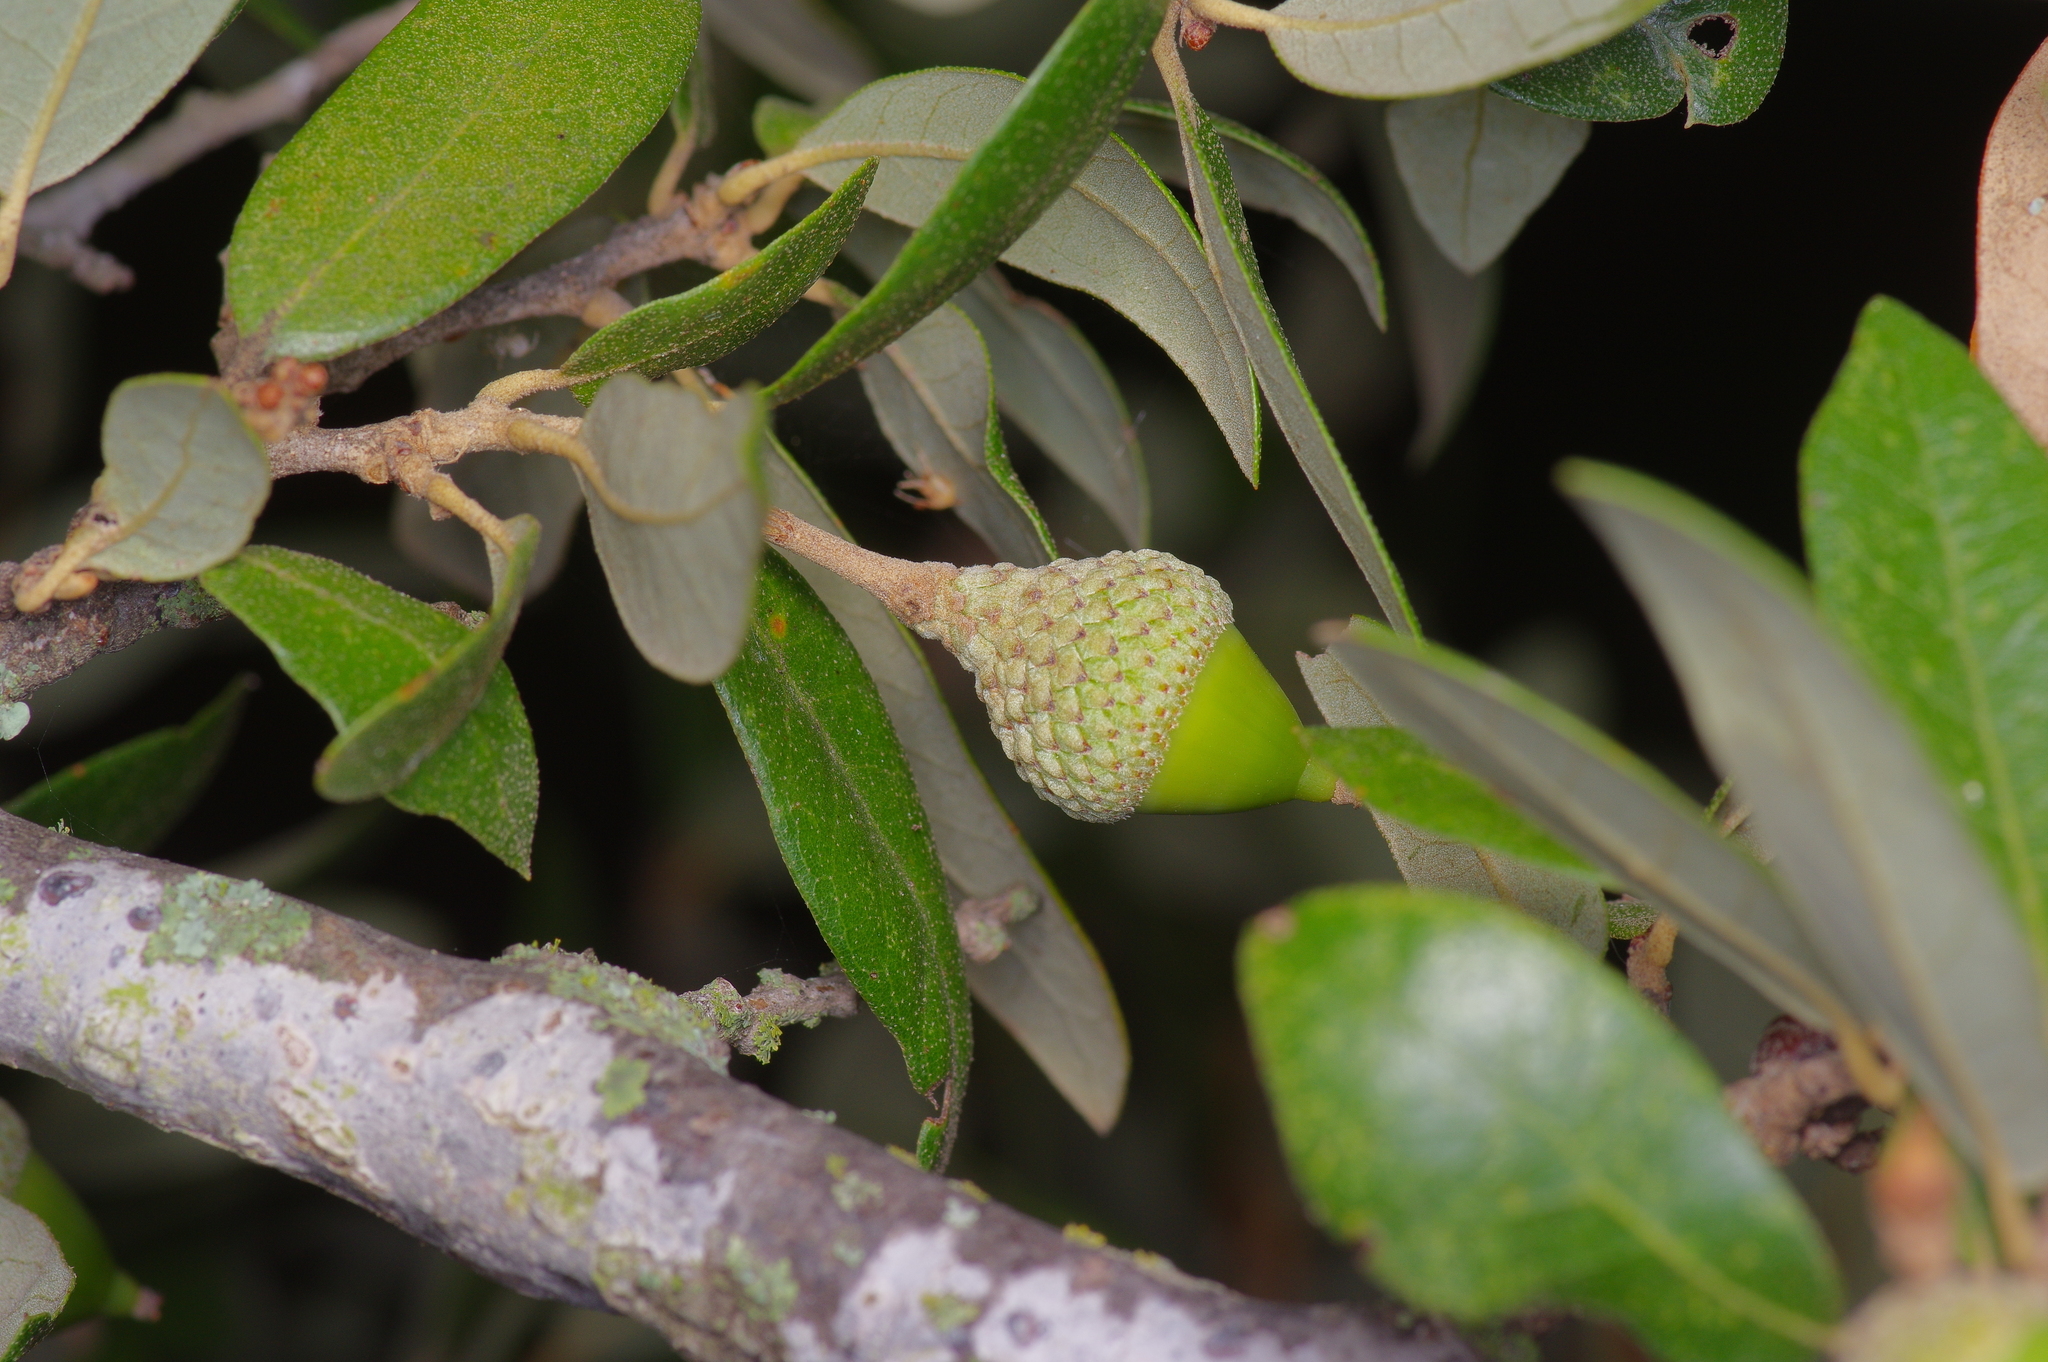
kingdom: Animalia
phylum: Arthropoda
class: Insecta
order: Hymenoptera
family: Cynipidae
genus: Belonocnema
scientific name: Belonocnema kinseyi
